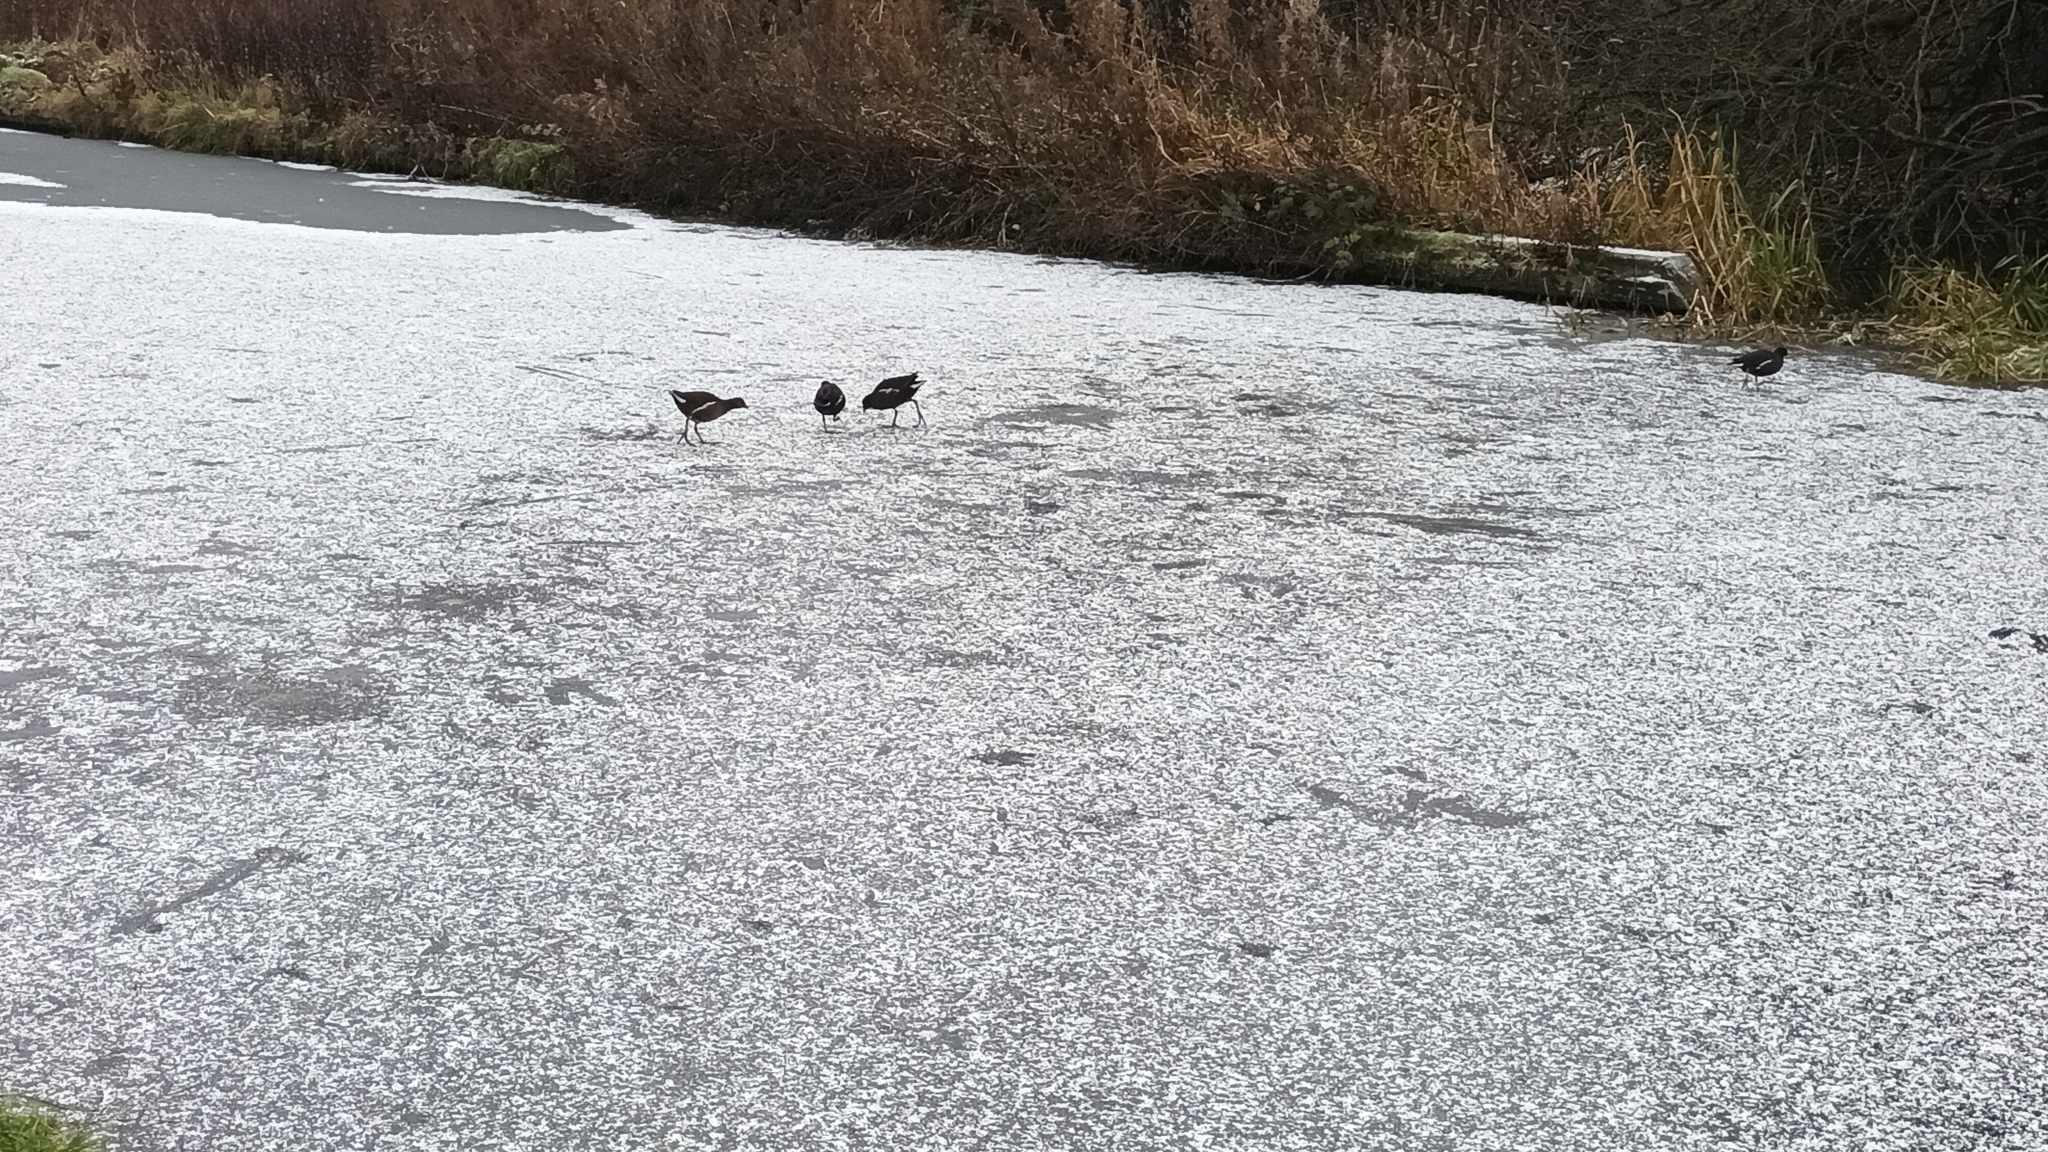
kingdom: Animalia
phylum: Chordata
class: Aves
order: Gruiformes
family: Rallidae
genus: Gallinula
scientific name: Gallinula chloropus
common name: Common moorhen
